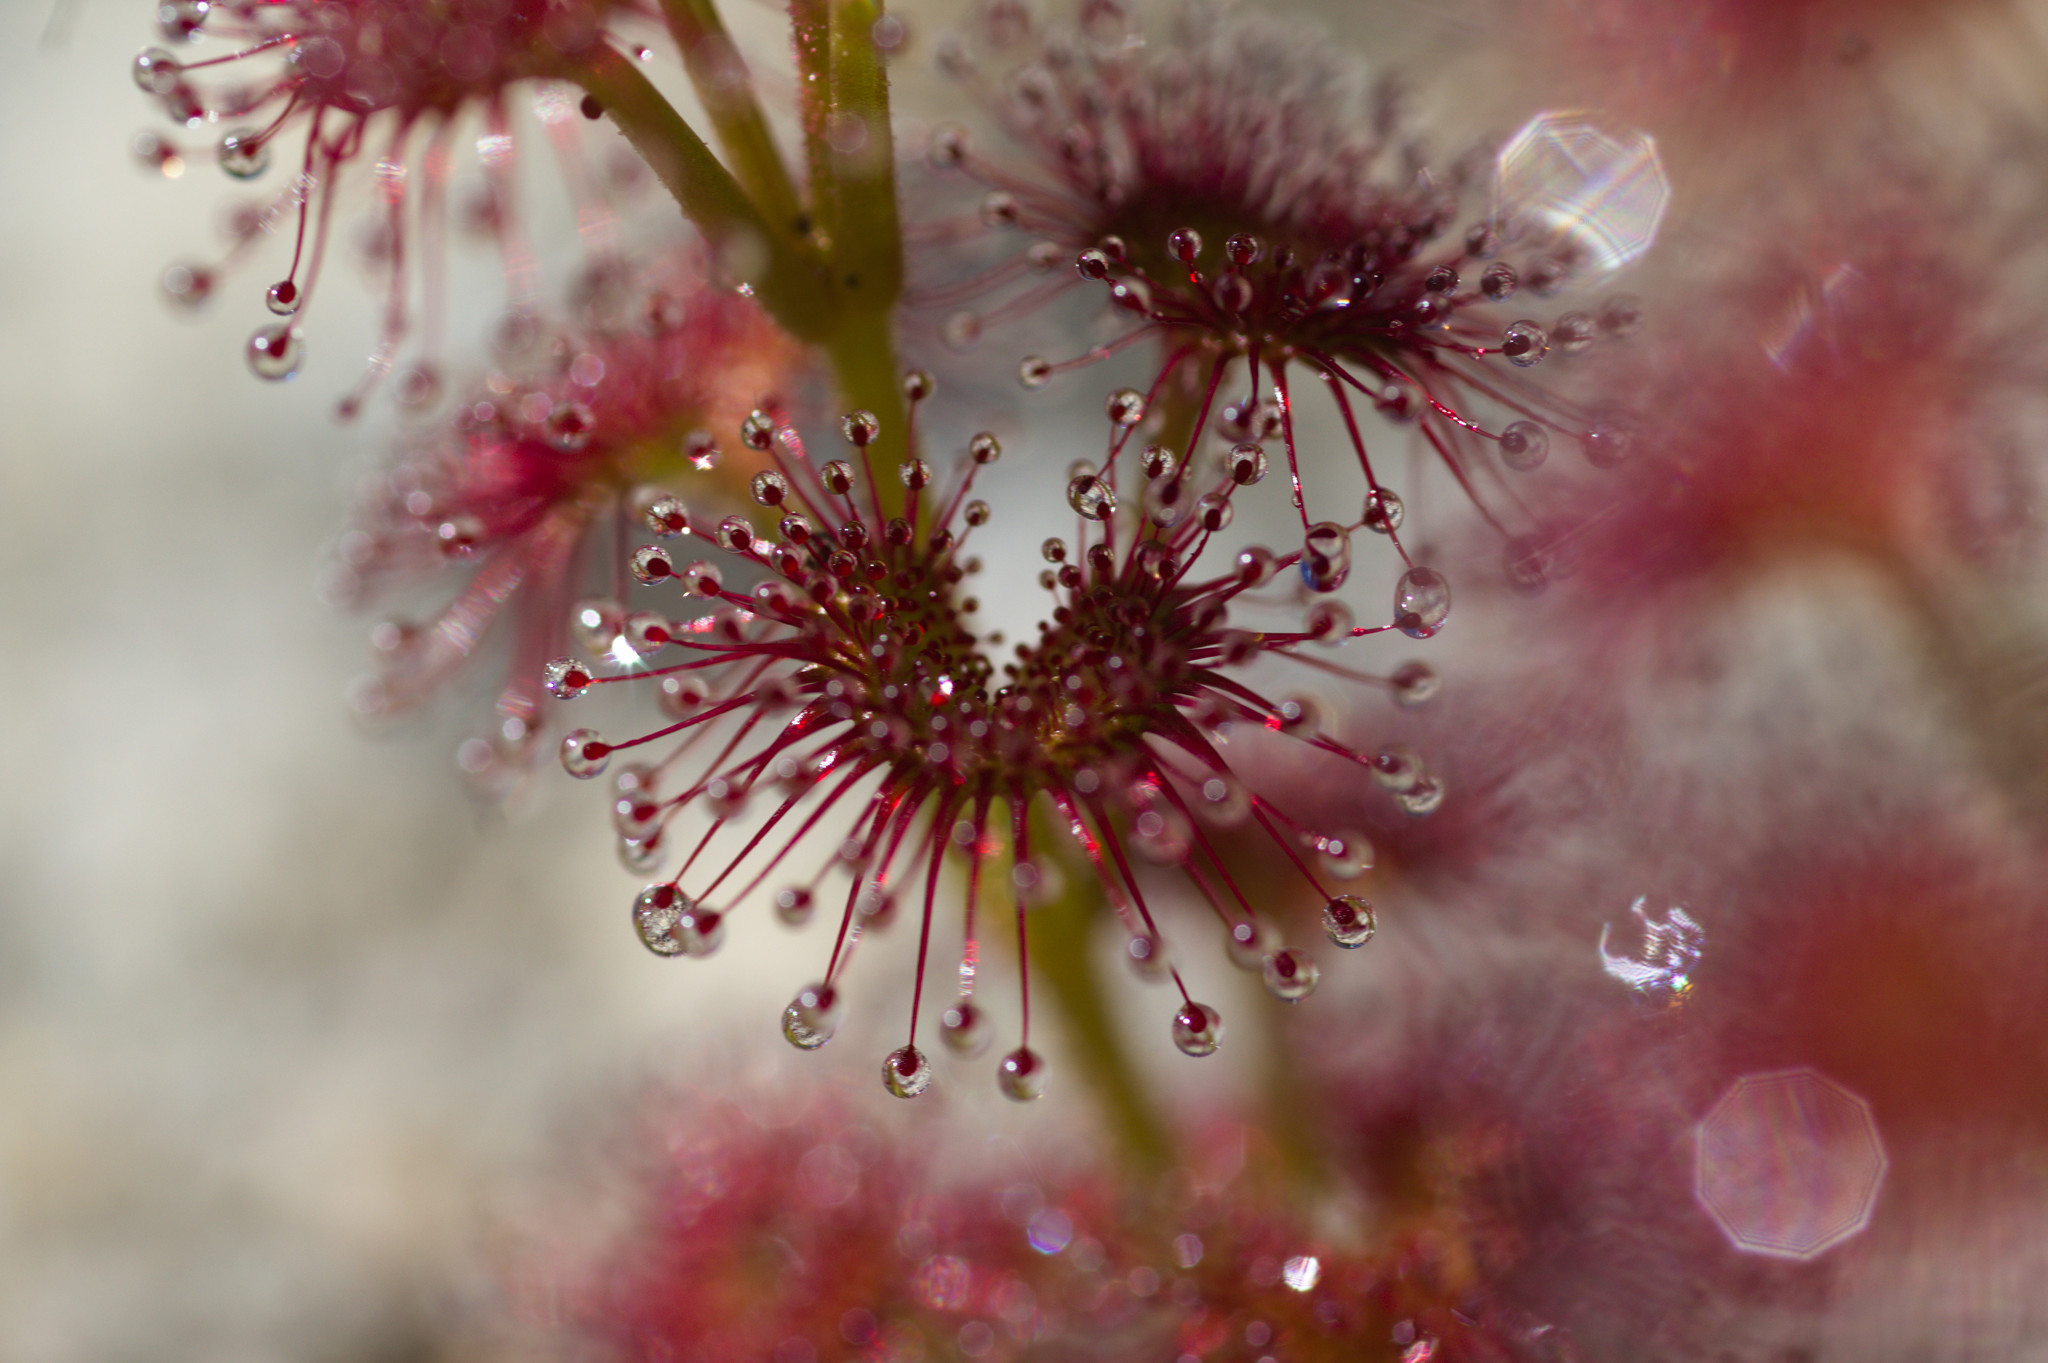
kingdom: Plantae
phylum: Tracheophyta
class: Magnoliopsida
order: Caryophyllales
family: Droseraceae
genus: Drosera
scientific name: Drosera stolonifera
